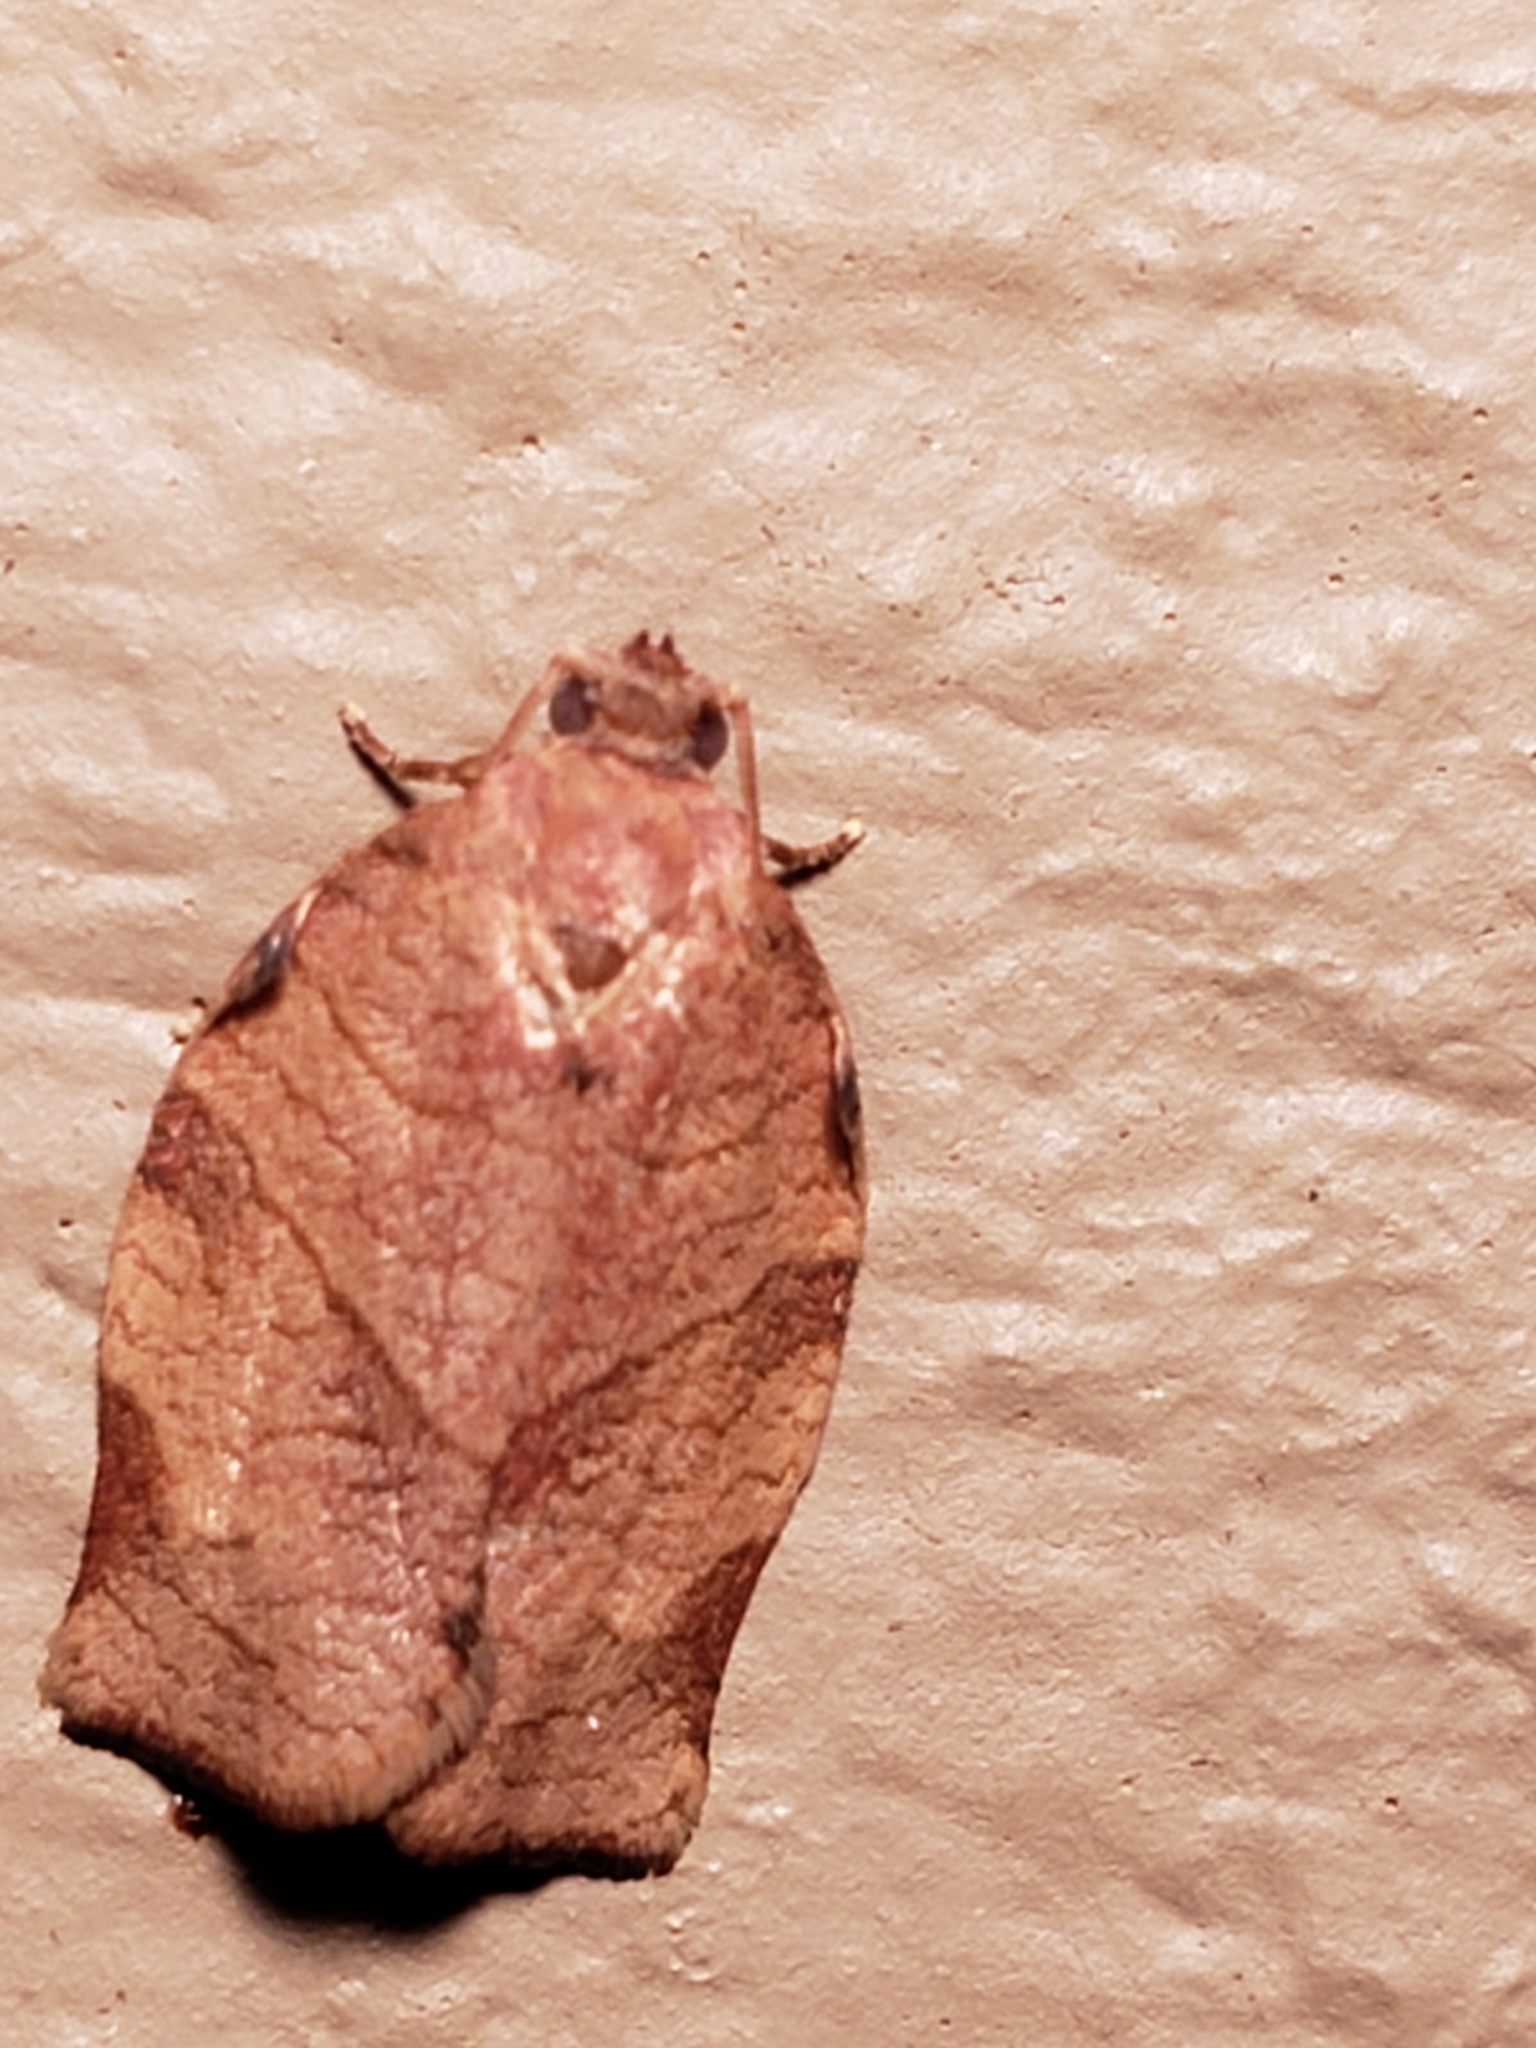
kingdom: Animalia
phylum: Arthropoda
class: Insecta
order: Lepidoptera
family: Tortricidae
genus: Choristoneura
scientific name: Choristoneura rosaceana
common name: Oblique-banded leafroller moth
